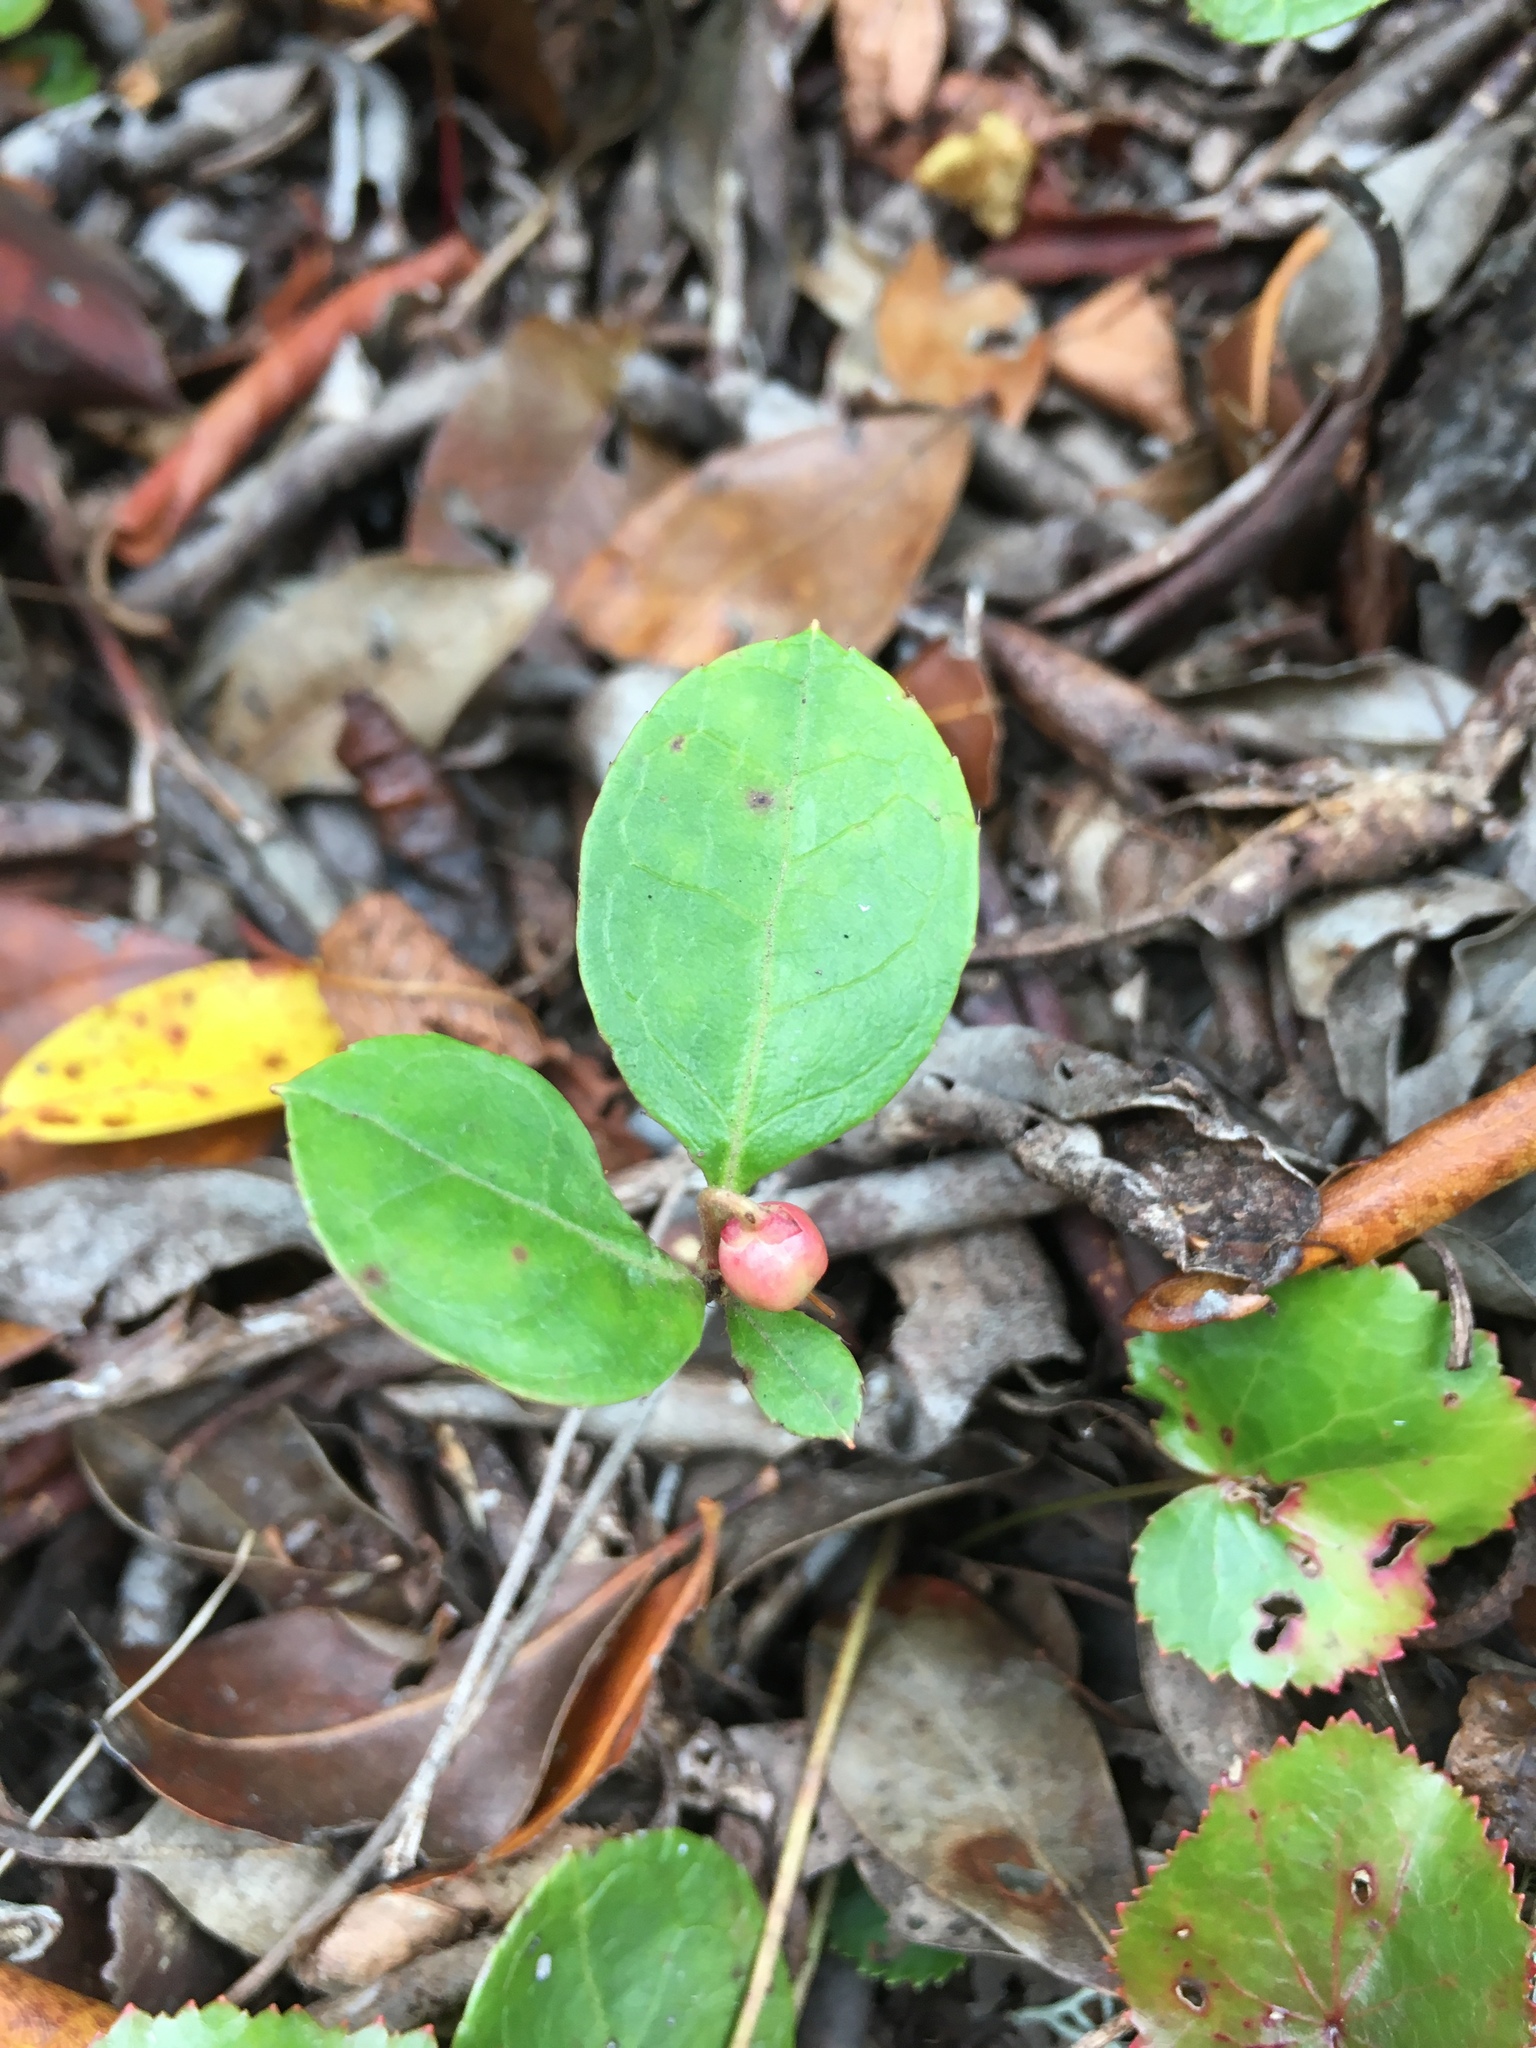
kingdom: Plantae
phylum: Tracheophyta
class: Magnoliopsida
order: Ericales
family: Ericaceae
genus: Gaultheria
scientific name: Gaultheria procumbens
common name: Checkerberry
